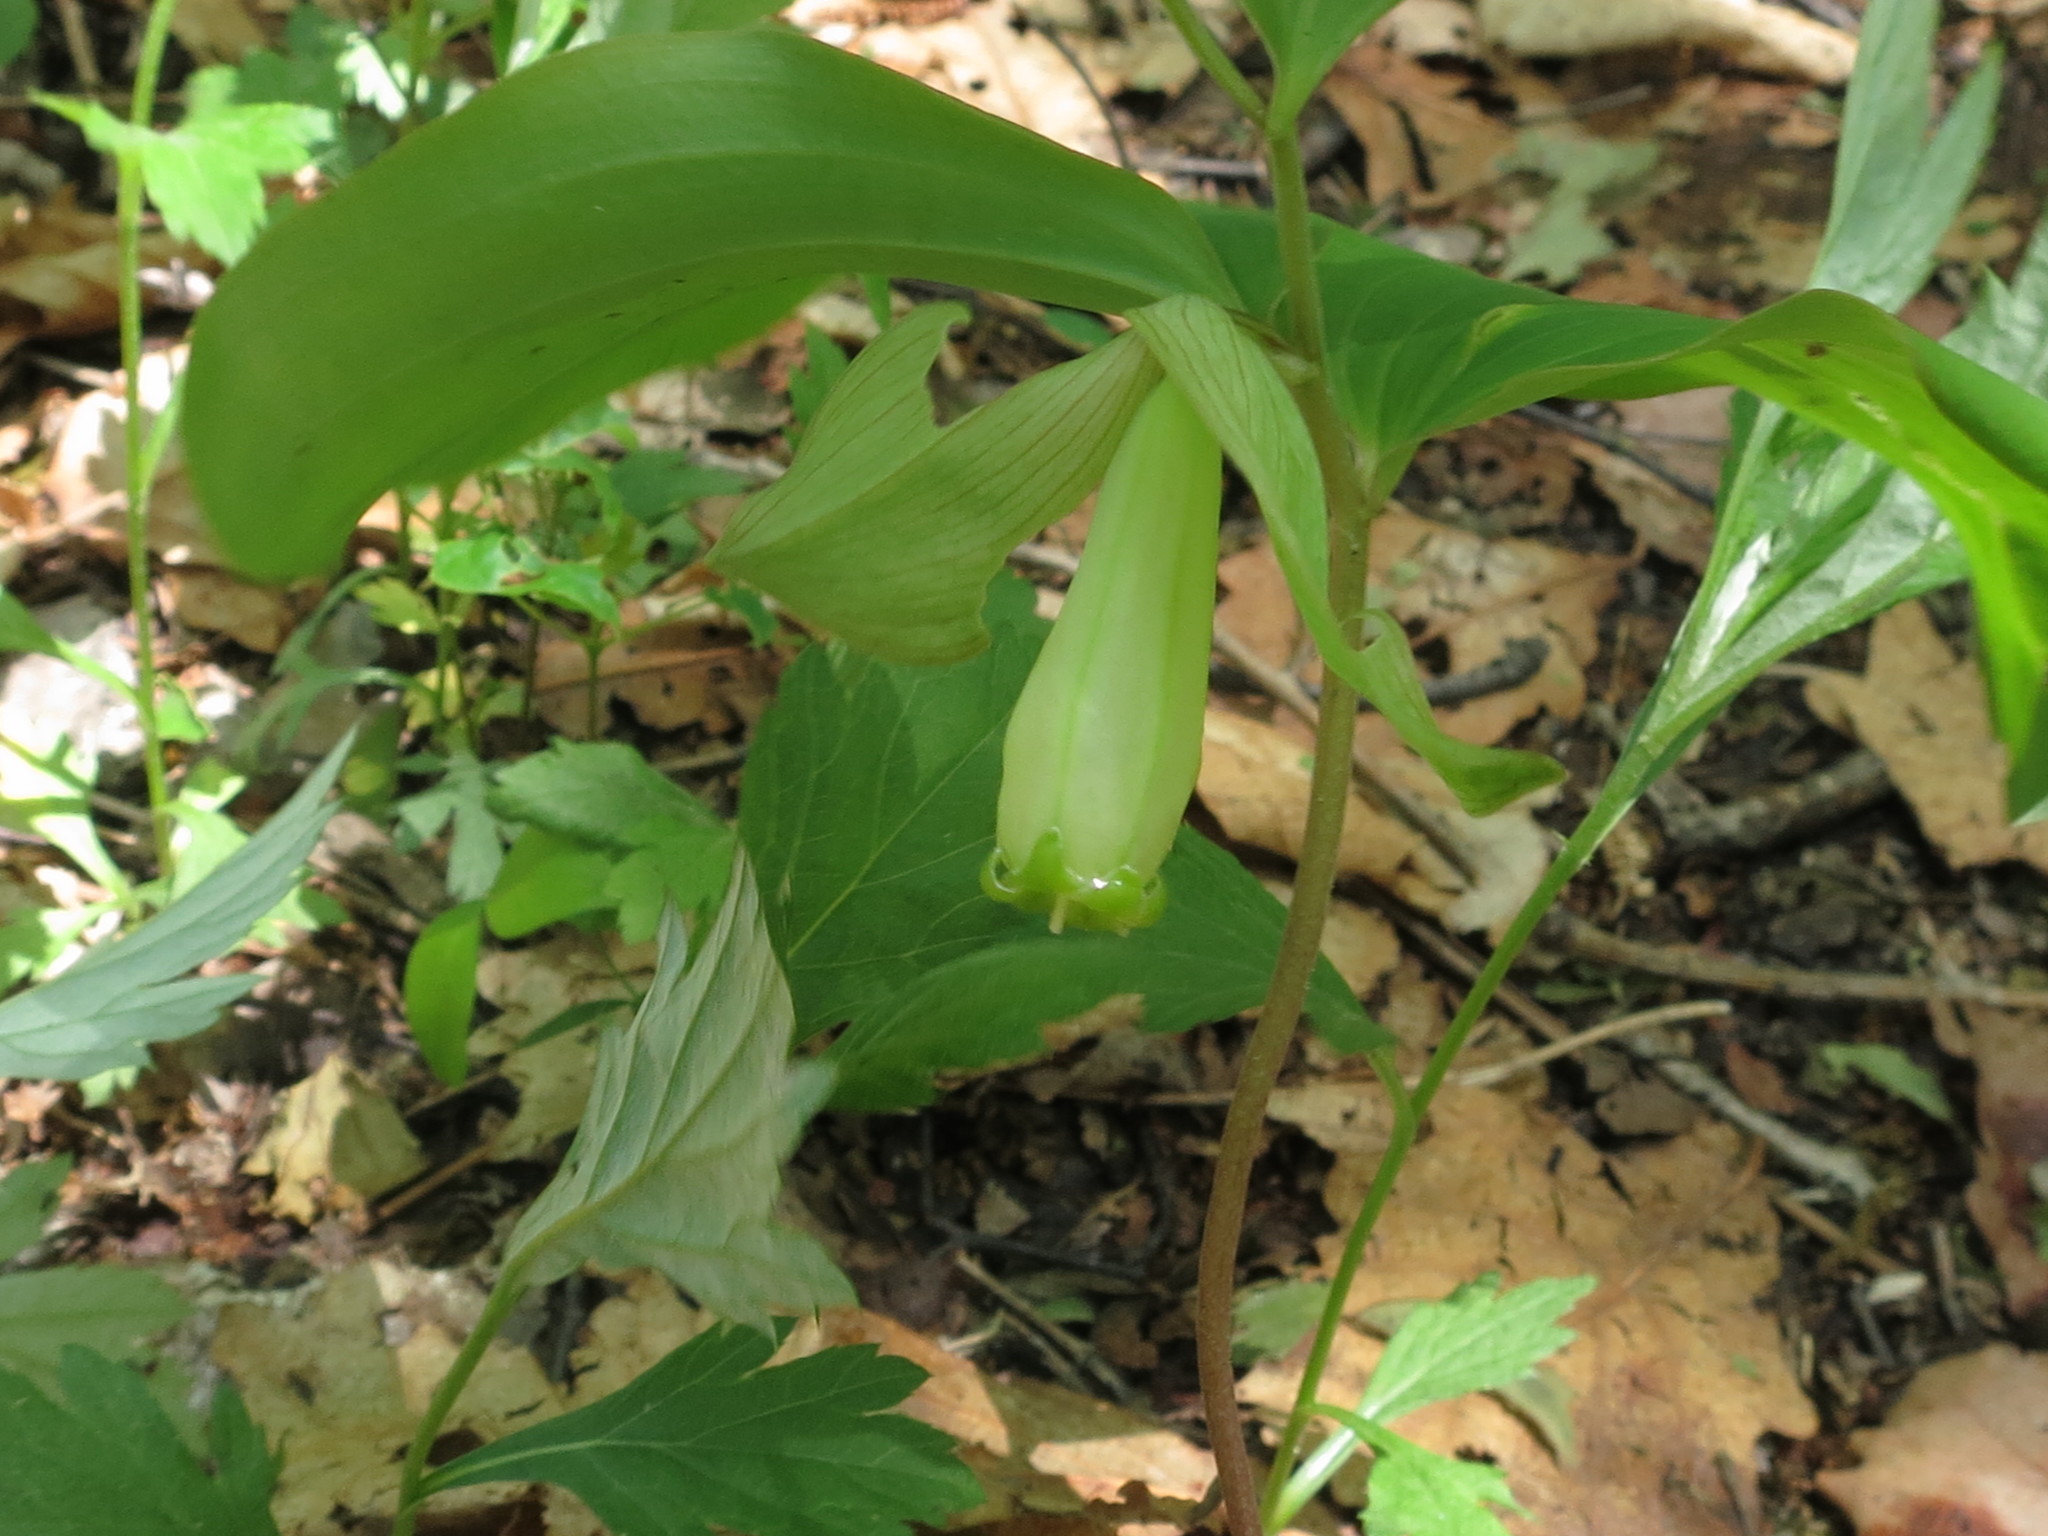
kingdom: Plantae
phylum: Tracheophyta
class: Liliopsida
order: Asparagales
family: Asparagaceae
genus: Polygonatum
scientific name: Polygonatum involucratum
